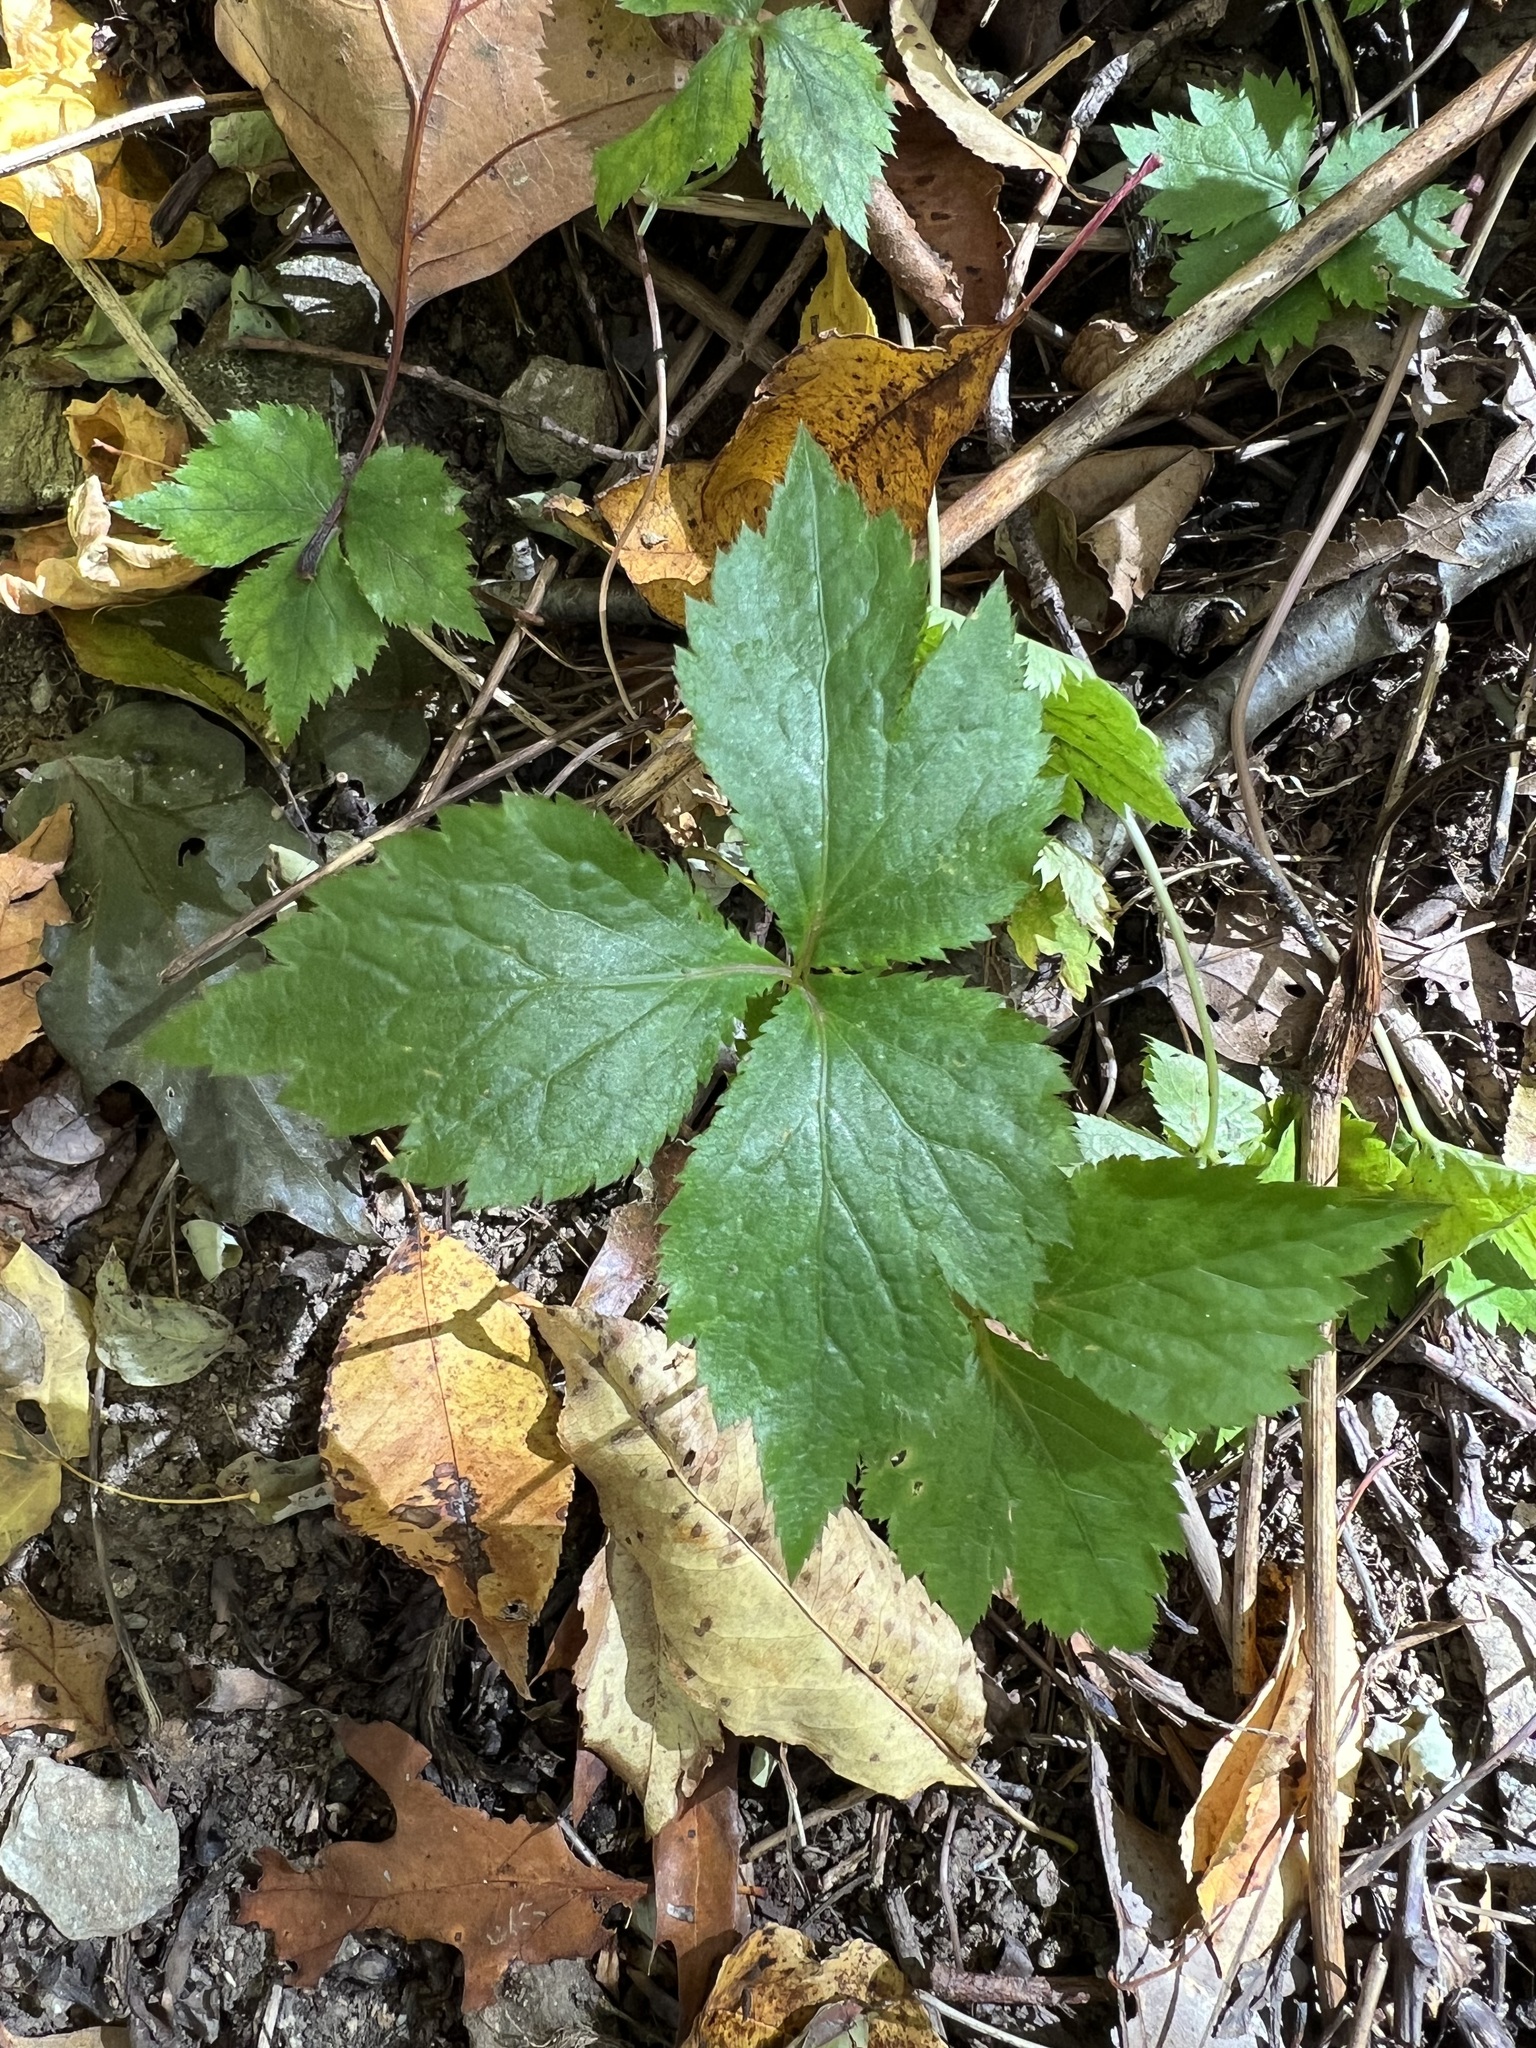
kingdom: Plantae
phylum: Tracheophyta
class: Magnoliopsida
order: Apiales
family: Apiaceae
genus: Cryptotaenia
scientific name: Cryptotaenia canadensis
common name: Honewort
